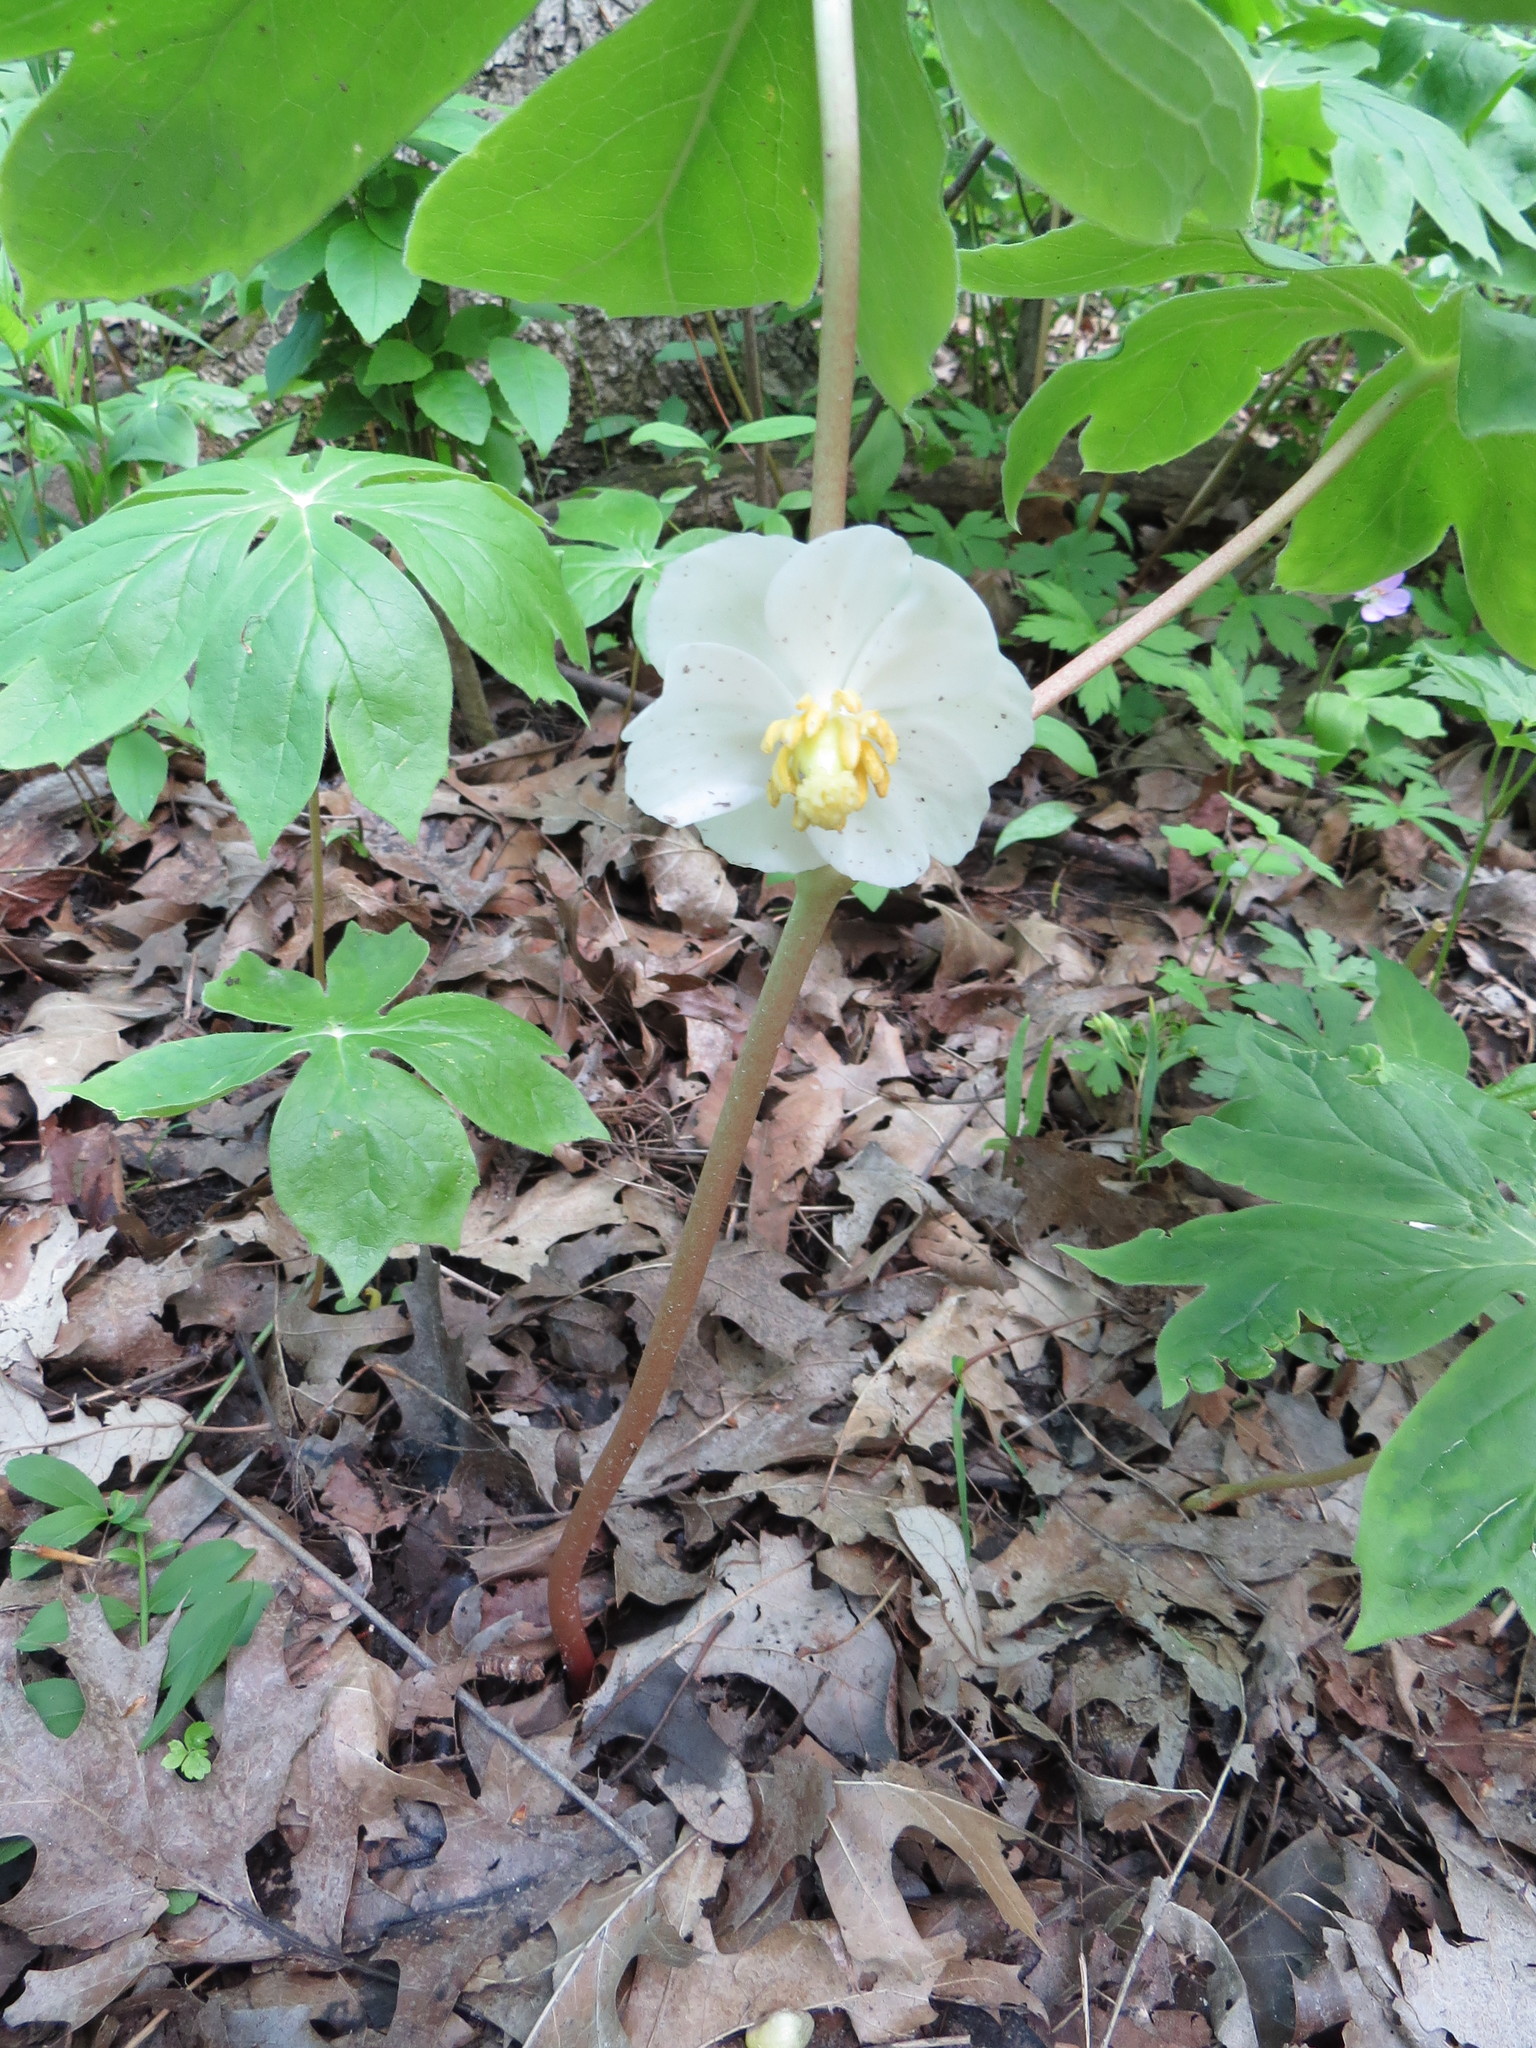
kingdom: Plantae
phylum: Tracheophyta
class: Magnoliopsida
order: Ranunculales
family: Berberidaceae
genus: Podophyllum
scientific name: Podophyllum peltatum
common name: Wild mandrake
